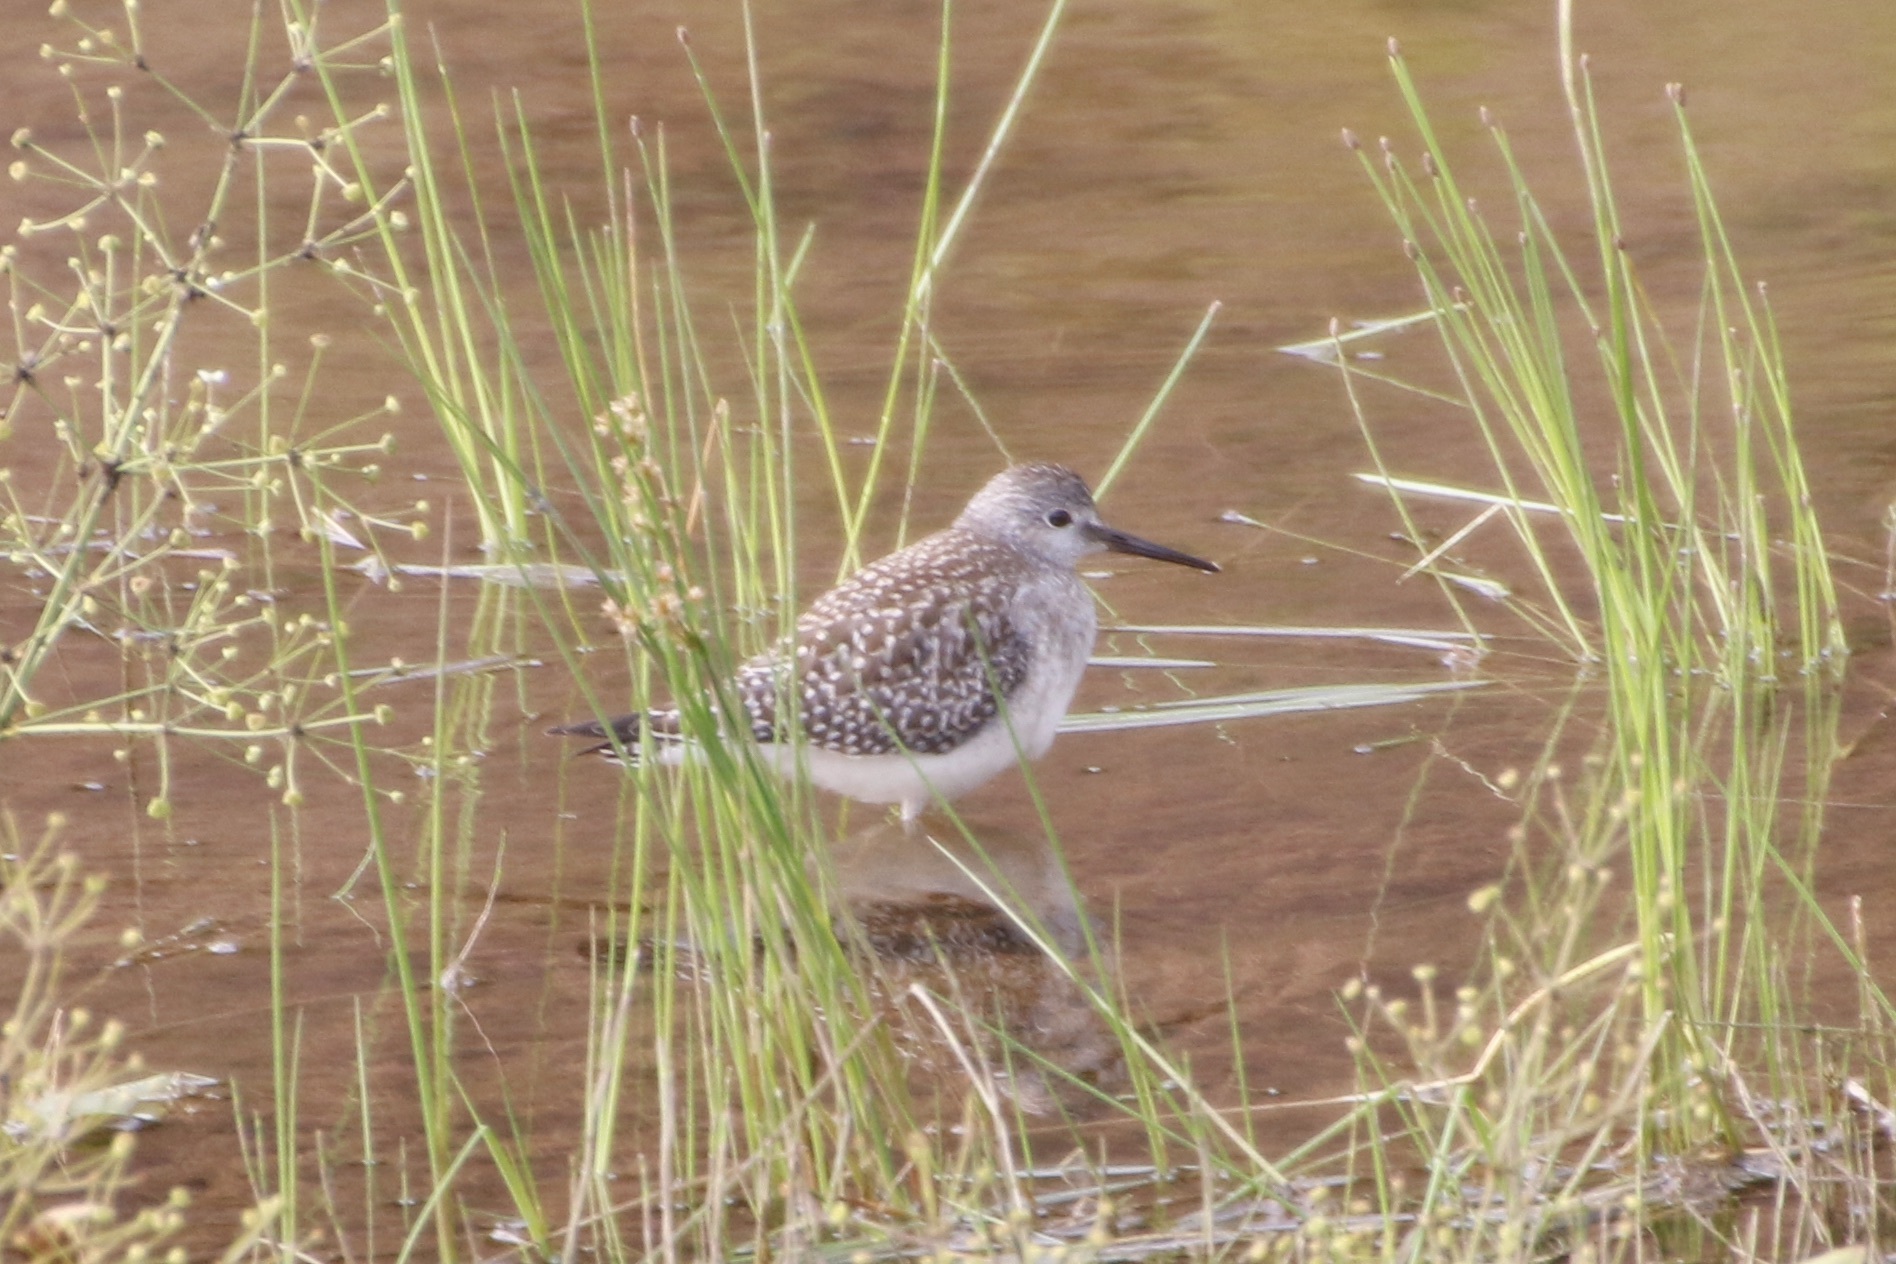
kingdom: Animalia
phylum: Chordata
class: Aves
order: Charadriiformes
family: Scolopacidae
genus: Tringa
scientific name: Tringa flavipes
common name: Lesser yellowlegs
